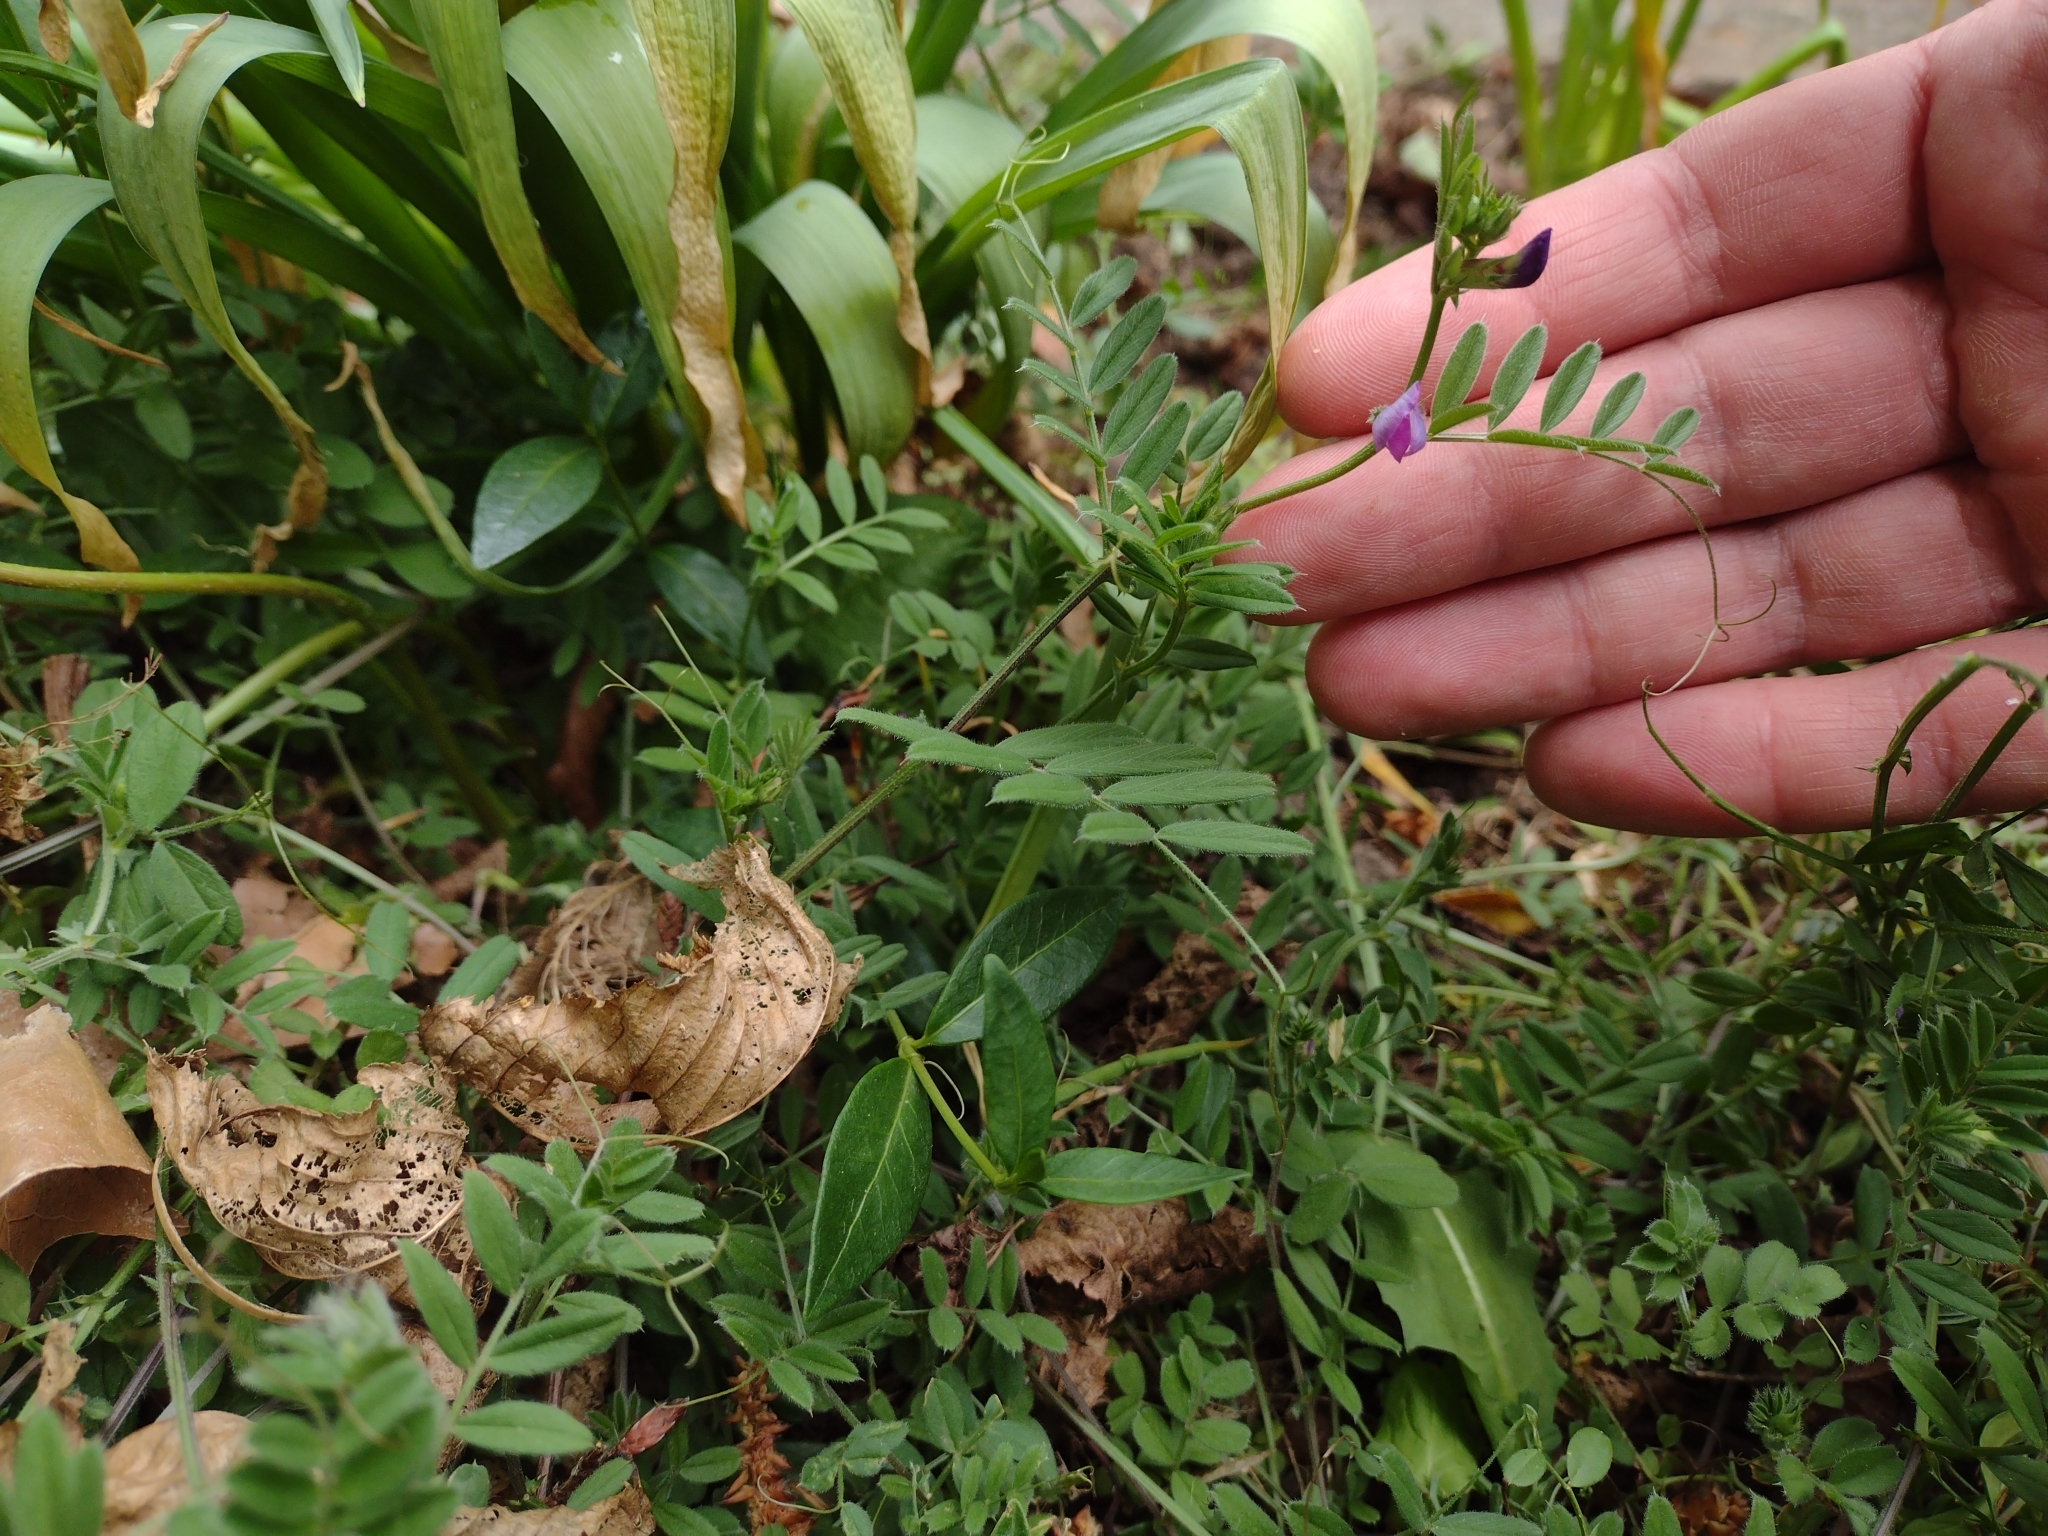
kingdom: Plantae
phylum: Tracheophyta
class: Magnoliopsida
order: Fabales
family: Fabaceae
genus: Vicia
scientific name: Vicia sativa
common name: Garden vetch
